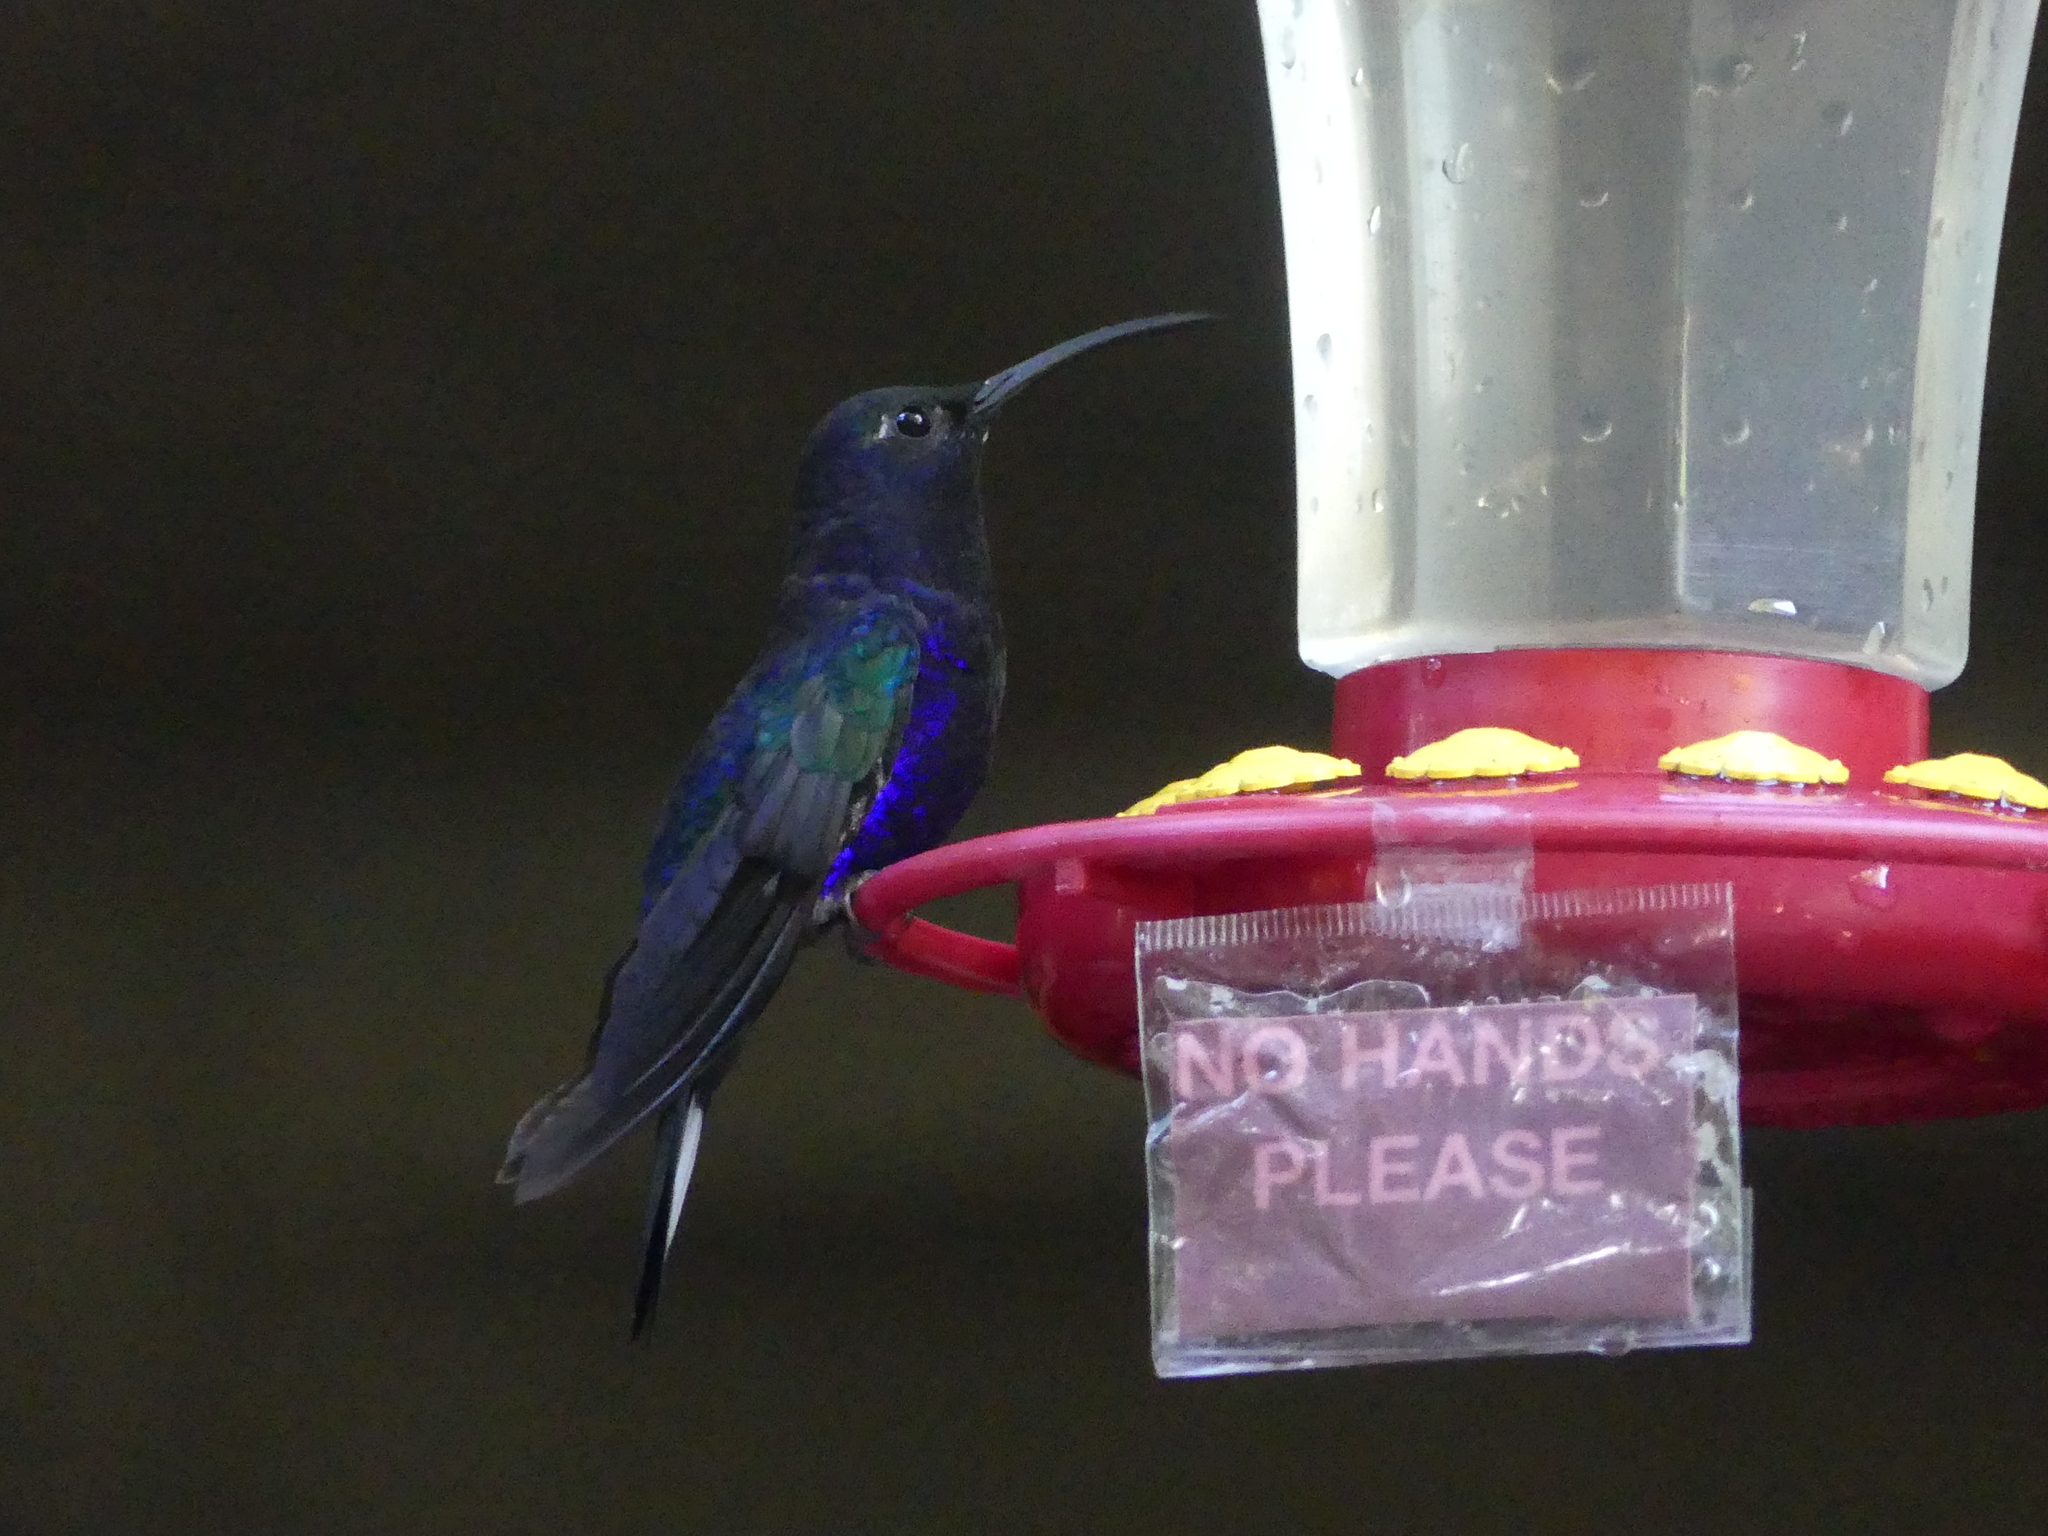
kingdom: Animalia
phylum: Chordata
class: Aves
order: Apodiformes
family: Trochilidae
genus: Campylopterus
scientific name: Campylopterus hemileucurus
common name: Violet sabrewing
